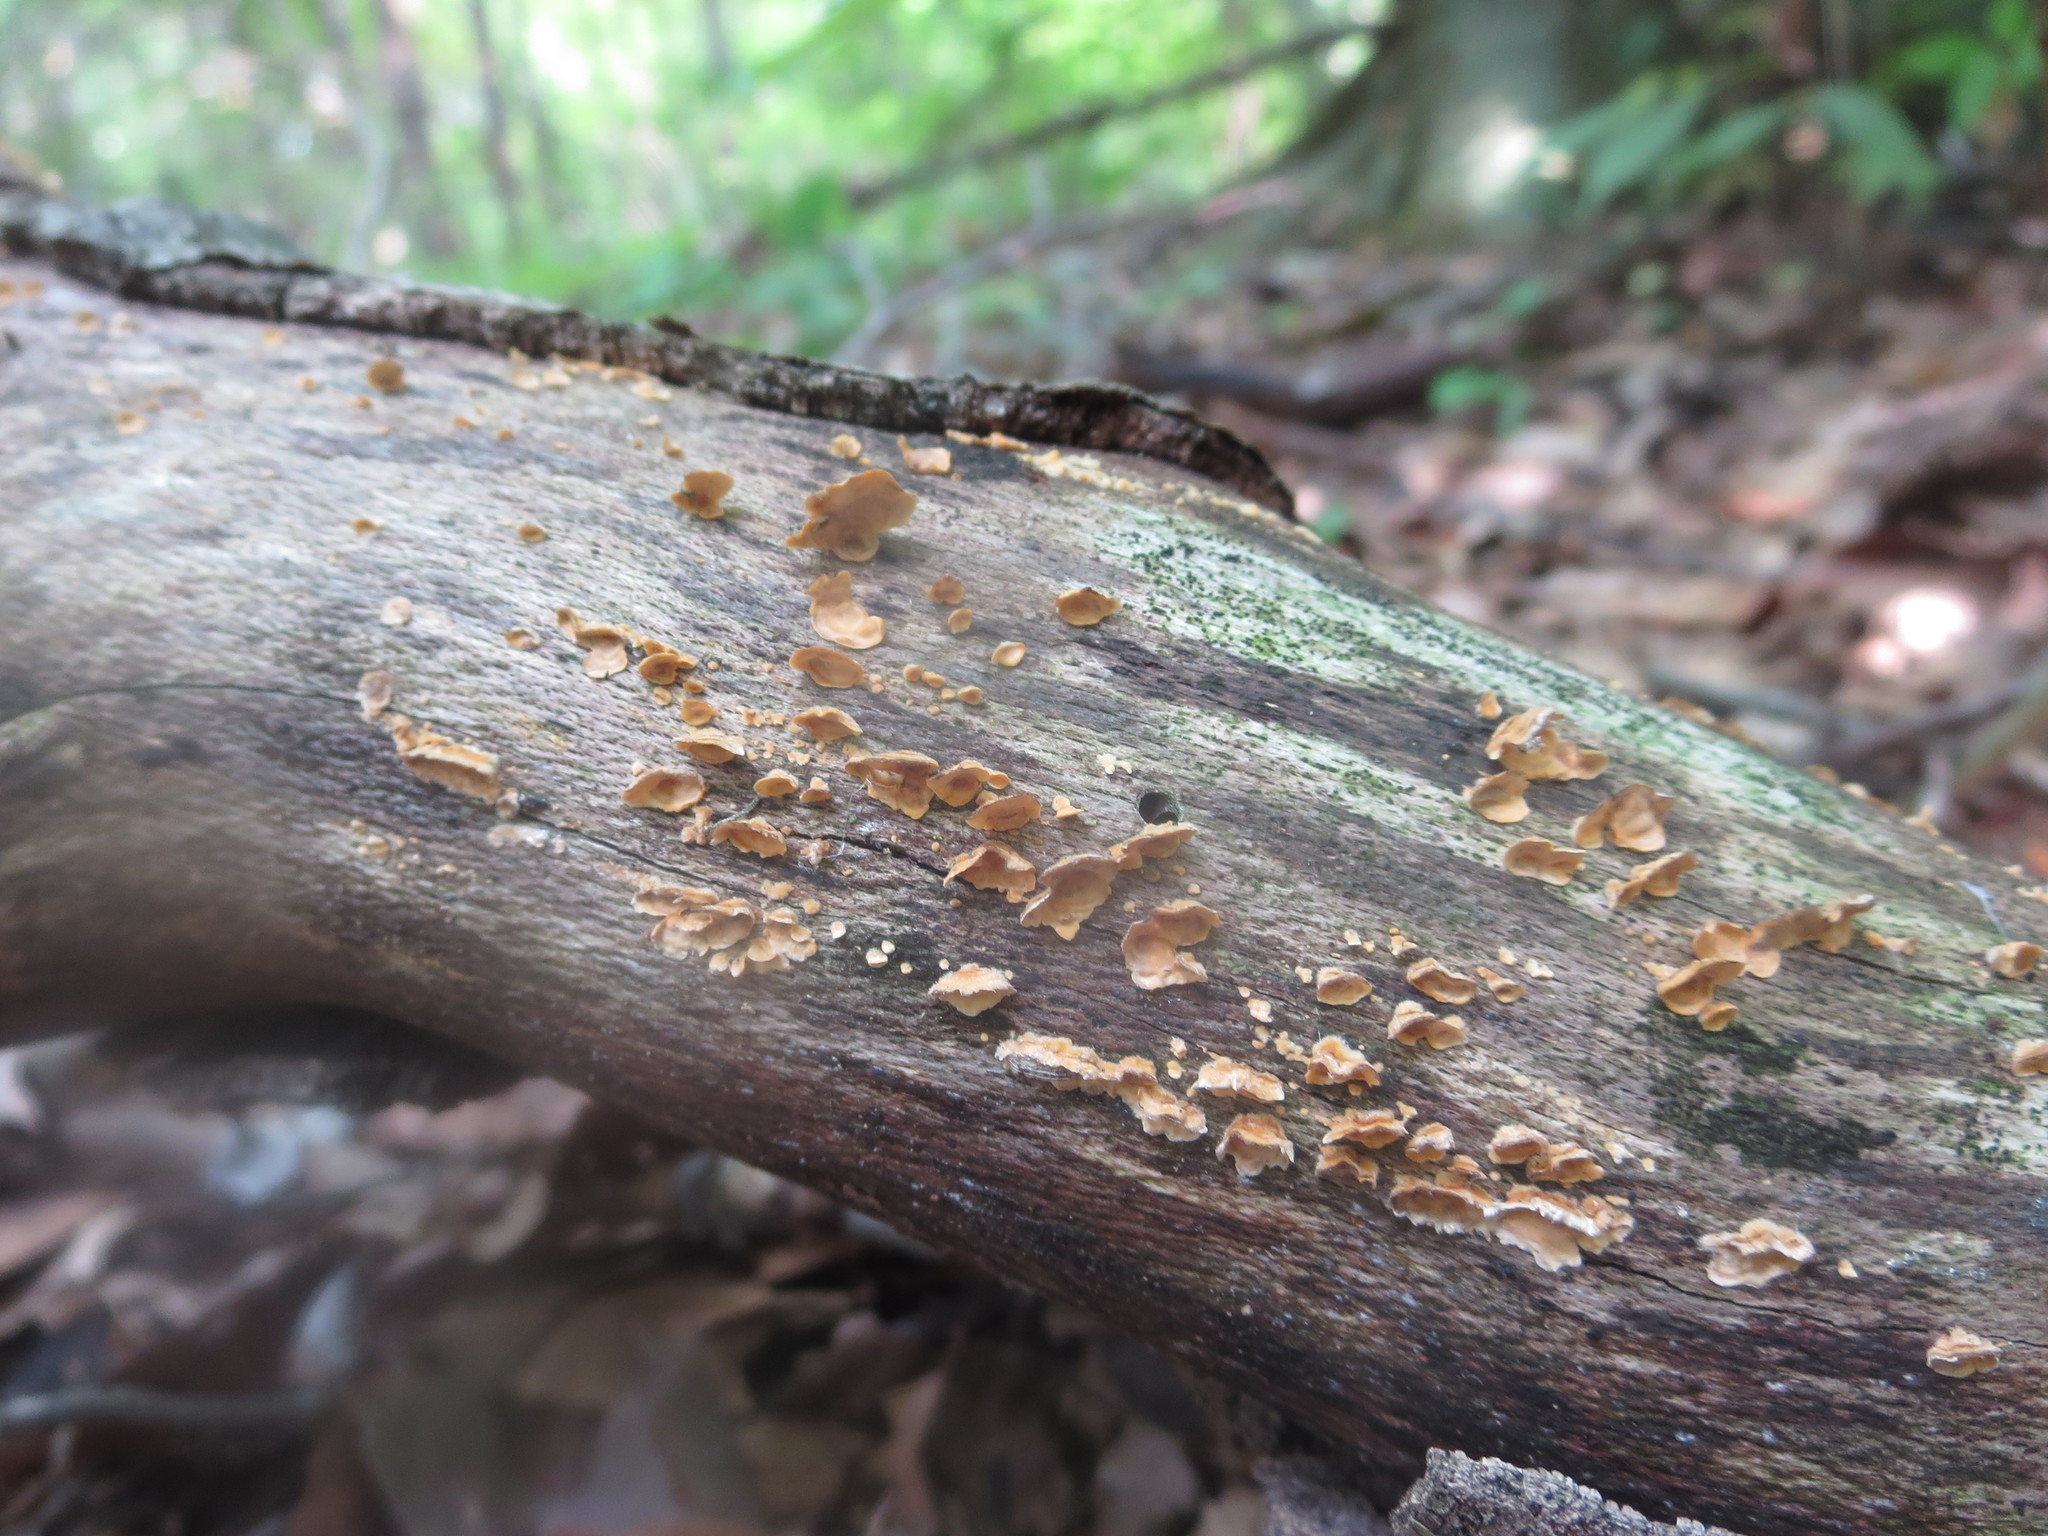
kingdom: Fungi
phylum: Basidiomycota
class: Agaricomycetes
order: Russulales
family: Stereaceae
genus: Stereum
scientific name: Stereum complicatum
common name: Crowded parchment
